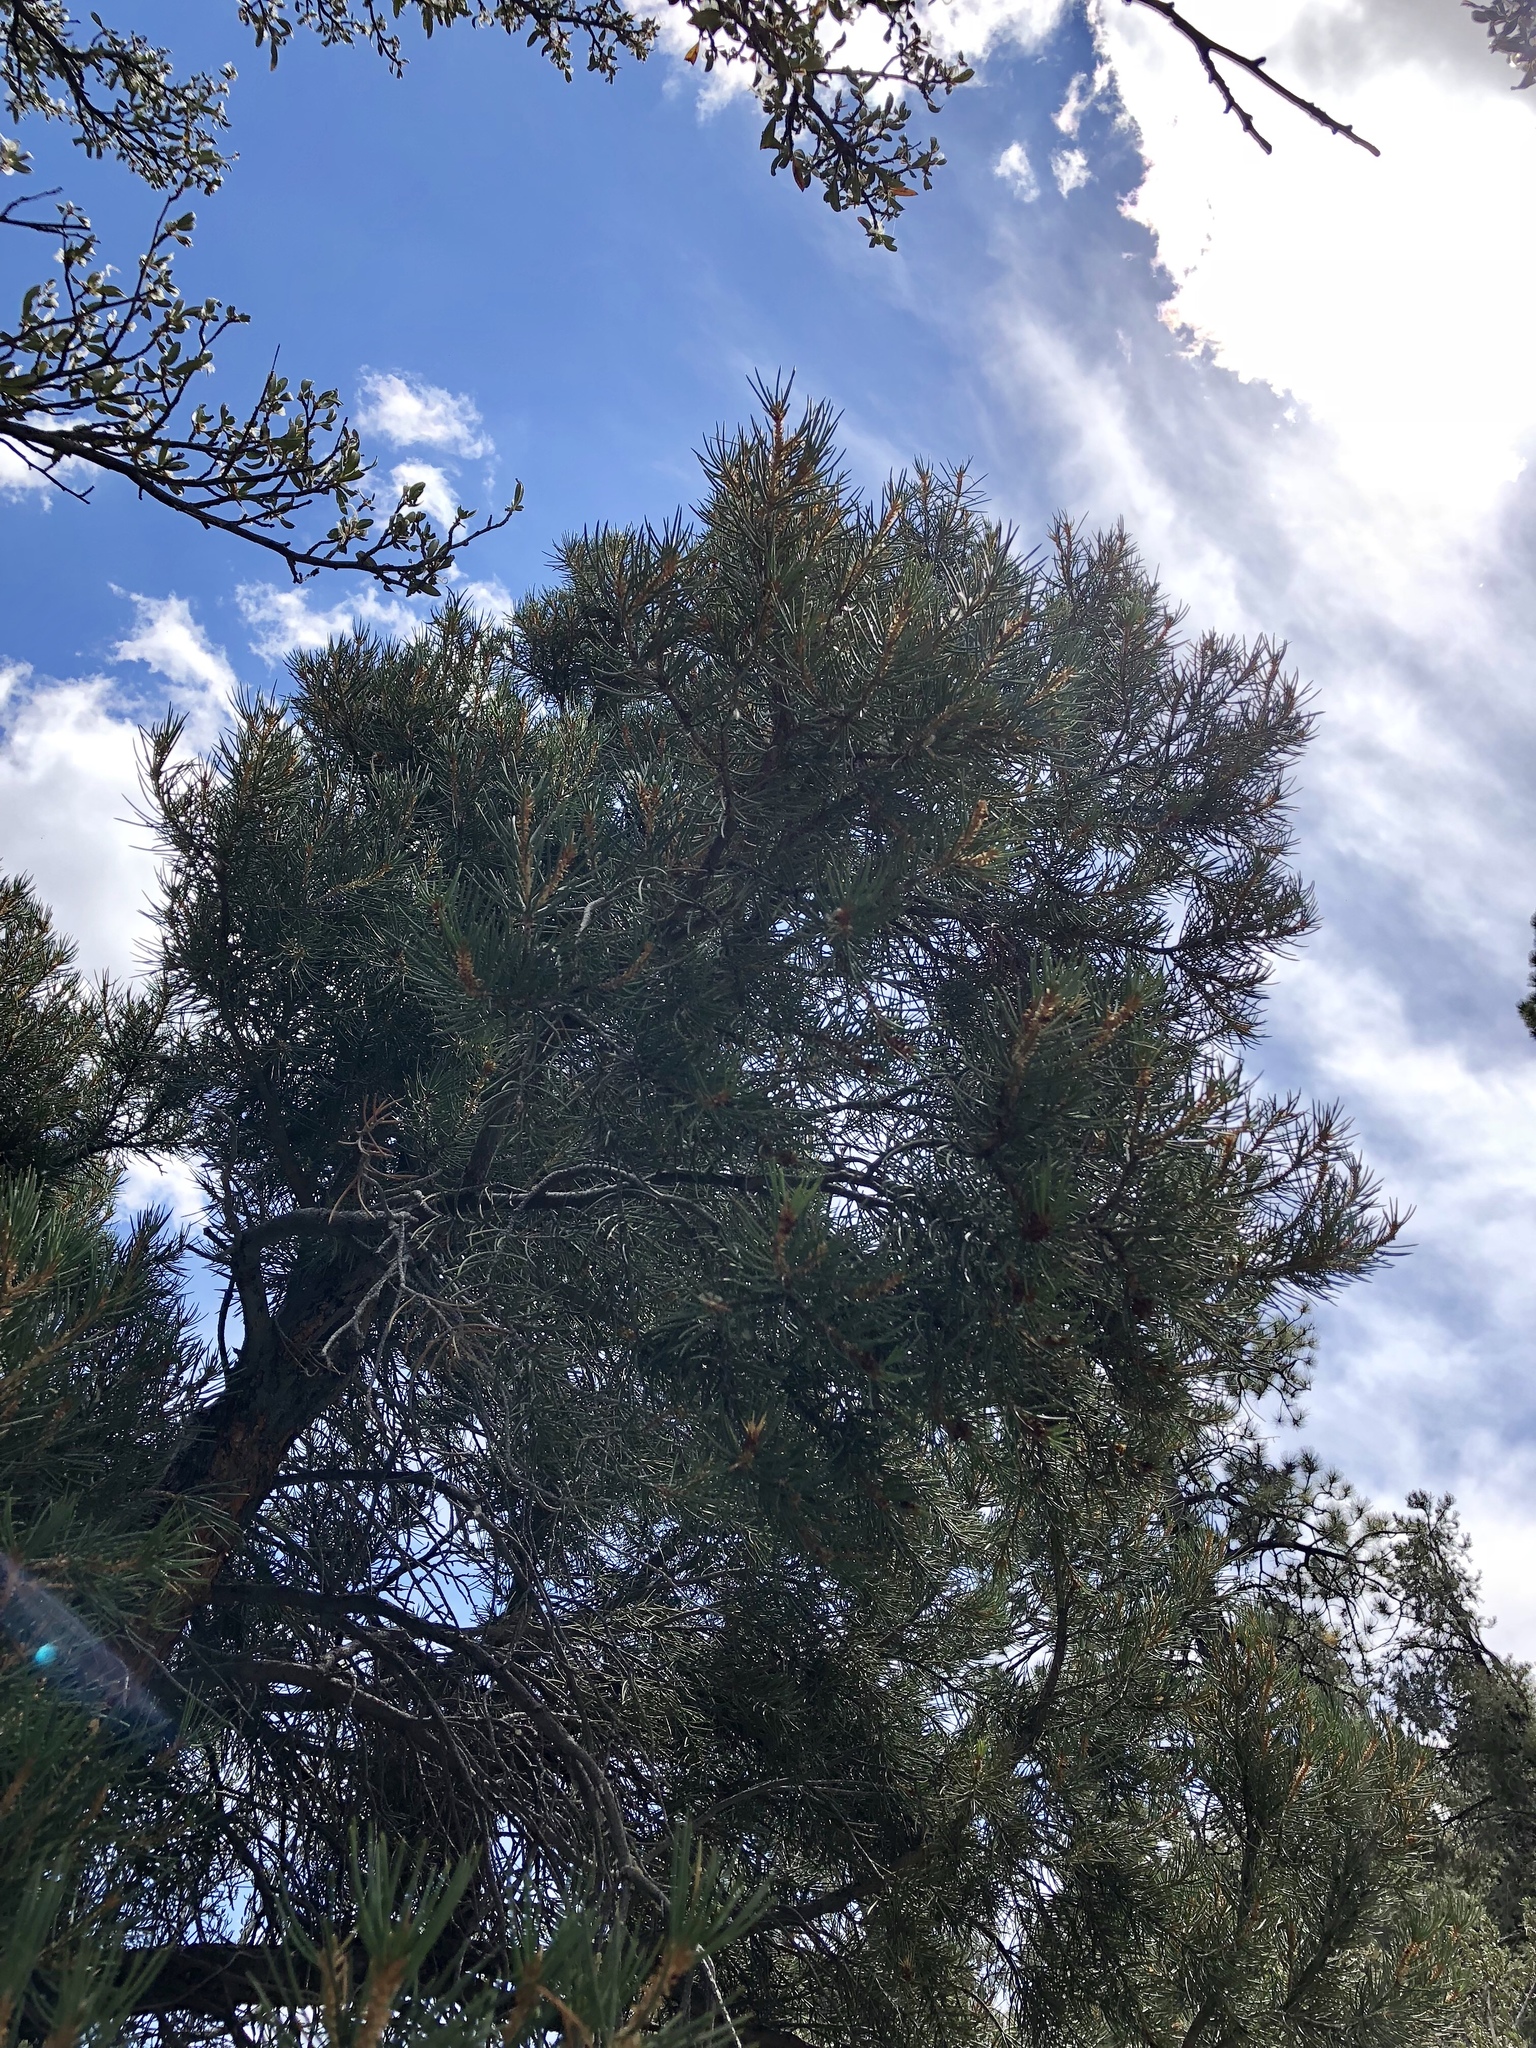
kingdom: Plantae
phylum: Tracheophyta
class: Pinopsida
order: Pinales
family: Pinaceae
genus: Pinus
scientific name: Pinus monophylla
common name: One-leaved nut pine
